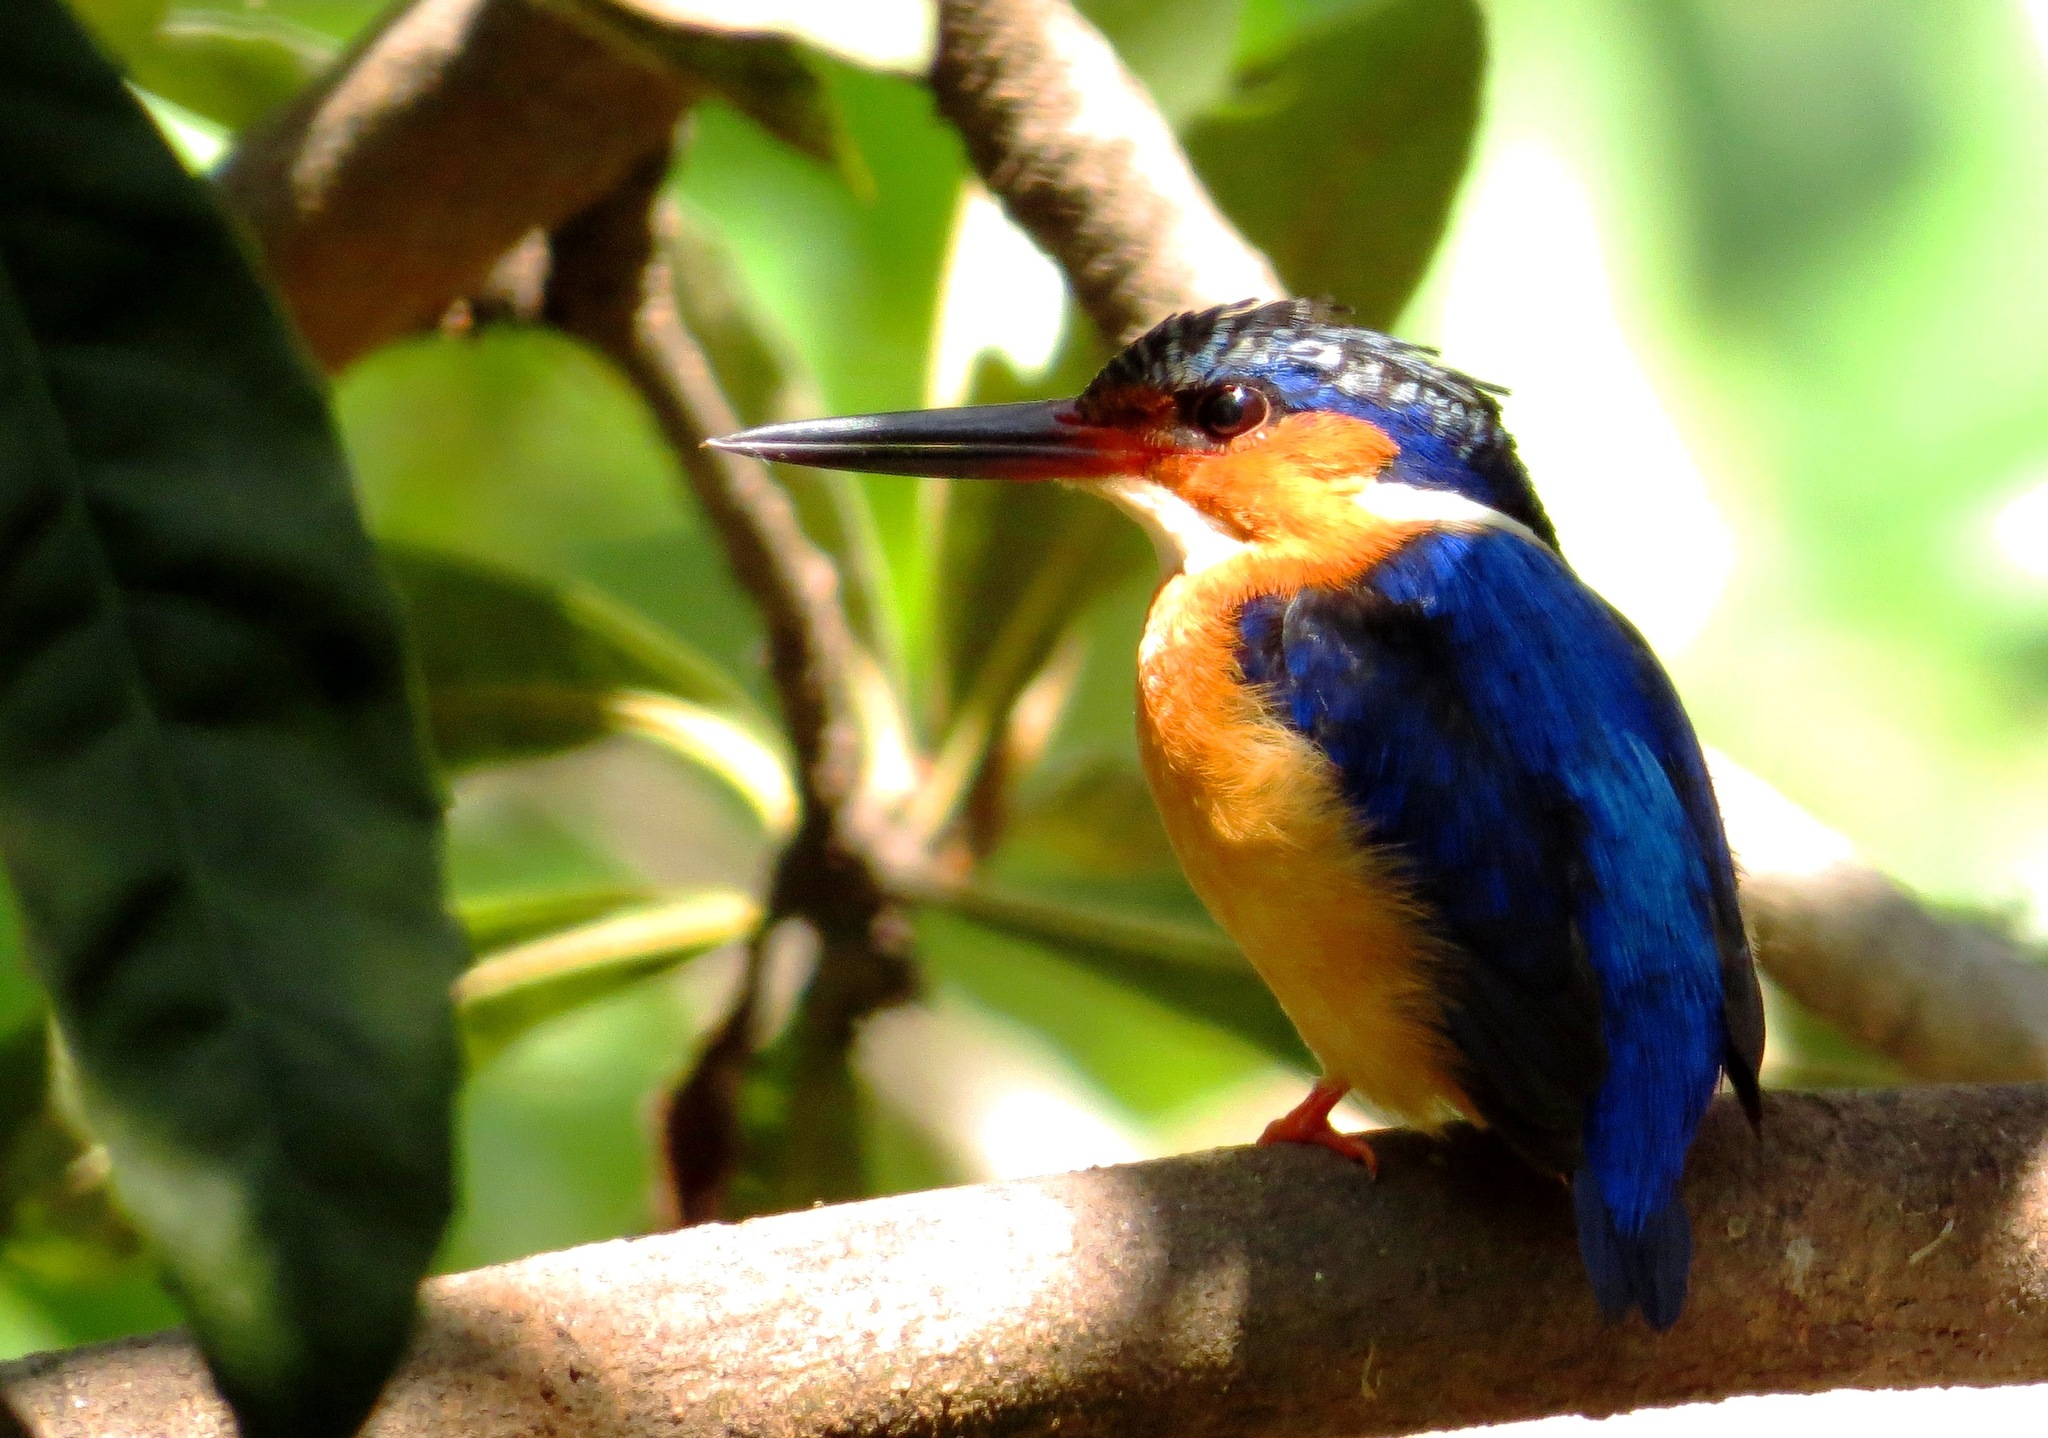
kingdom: Animalia
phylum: Chordata
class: Aves
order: Coraciiformes
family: Alcedinidae
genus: Corythornis
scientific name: Corythornis vintsioides
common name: Malagasy kingfisher
